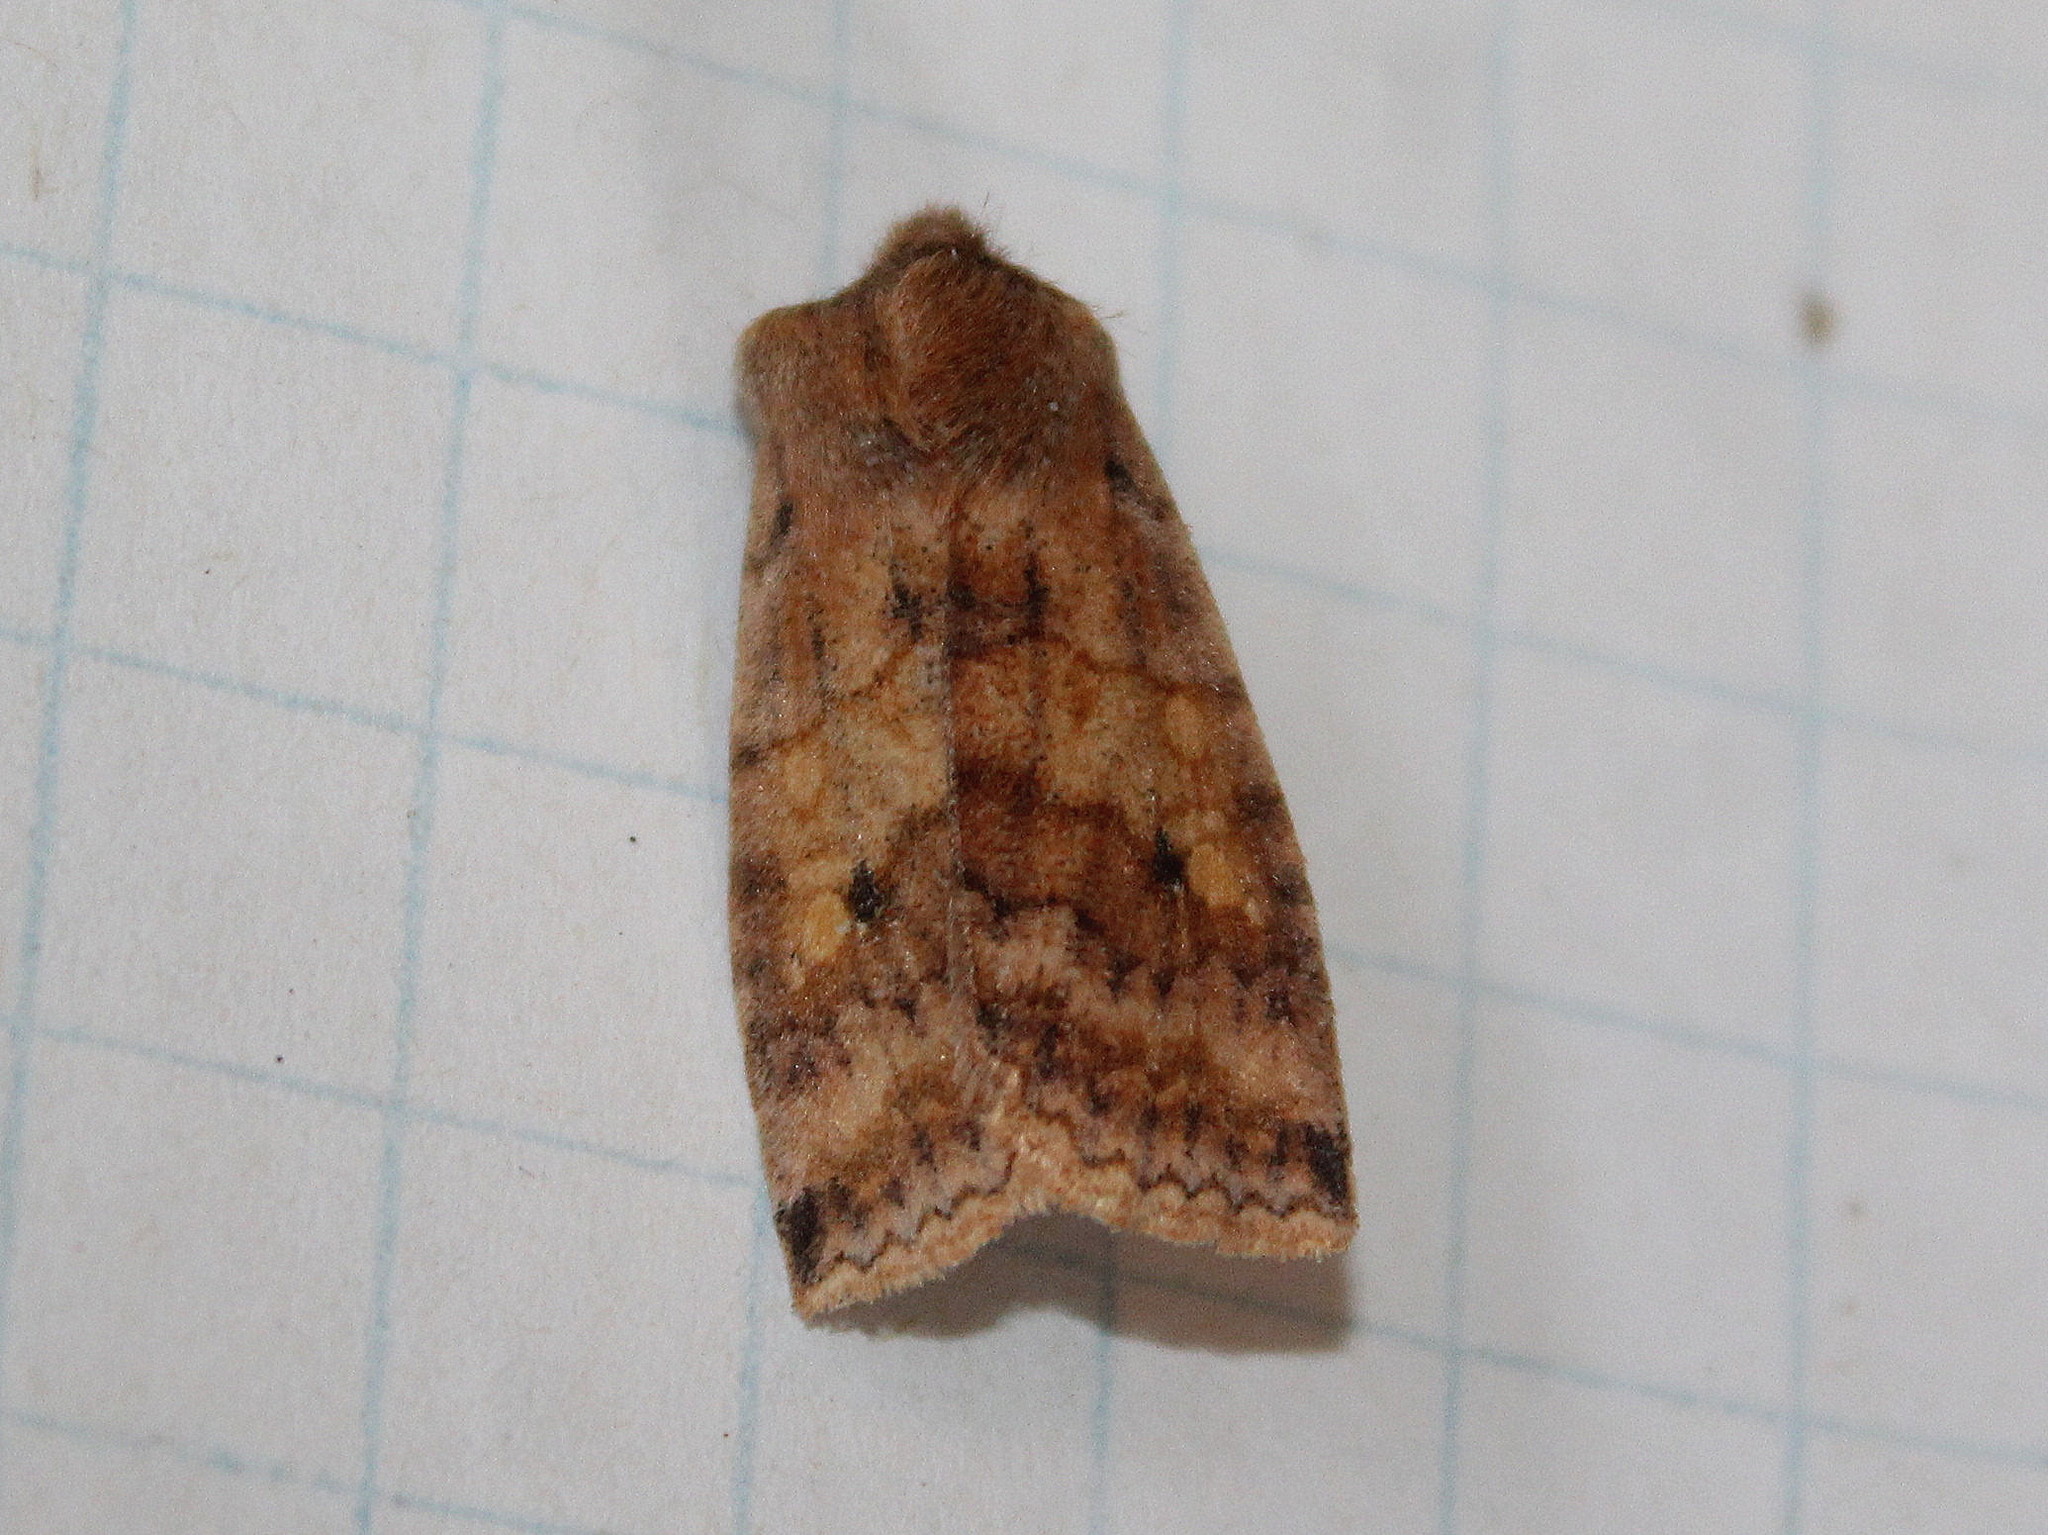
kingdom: Animalia
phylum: Arthropoda
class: Insecta
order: Lepidoptera
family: Noctuidae
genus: Eupsilia
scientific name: Eupsilia tristigmata
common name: Three-spotted sallow
